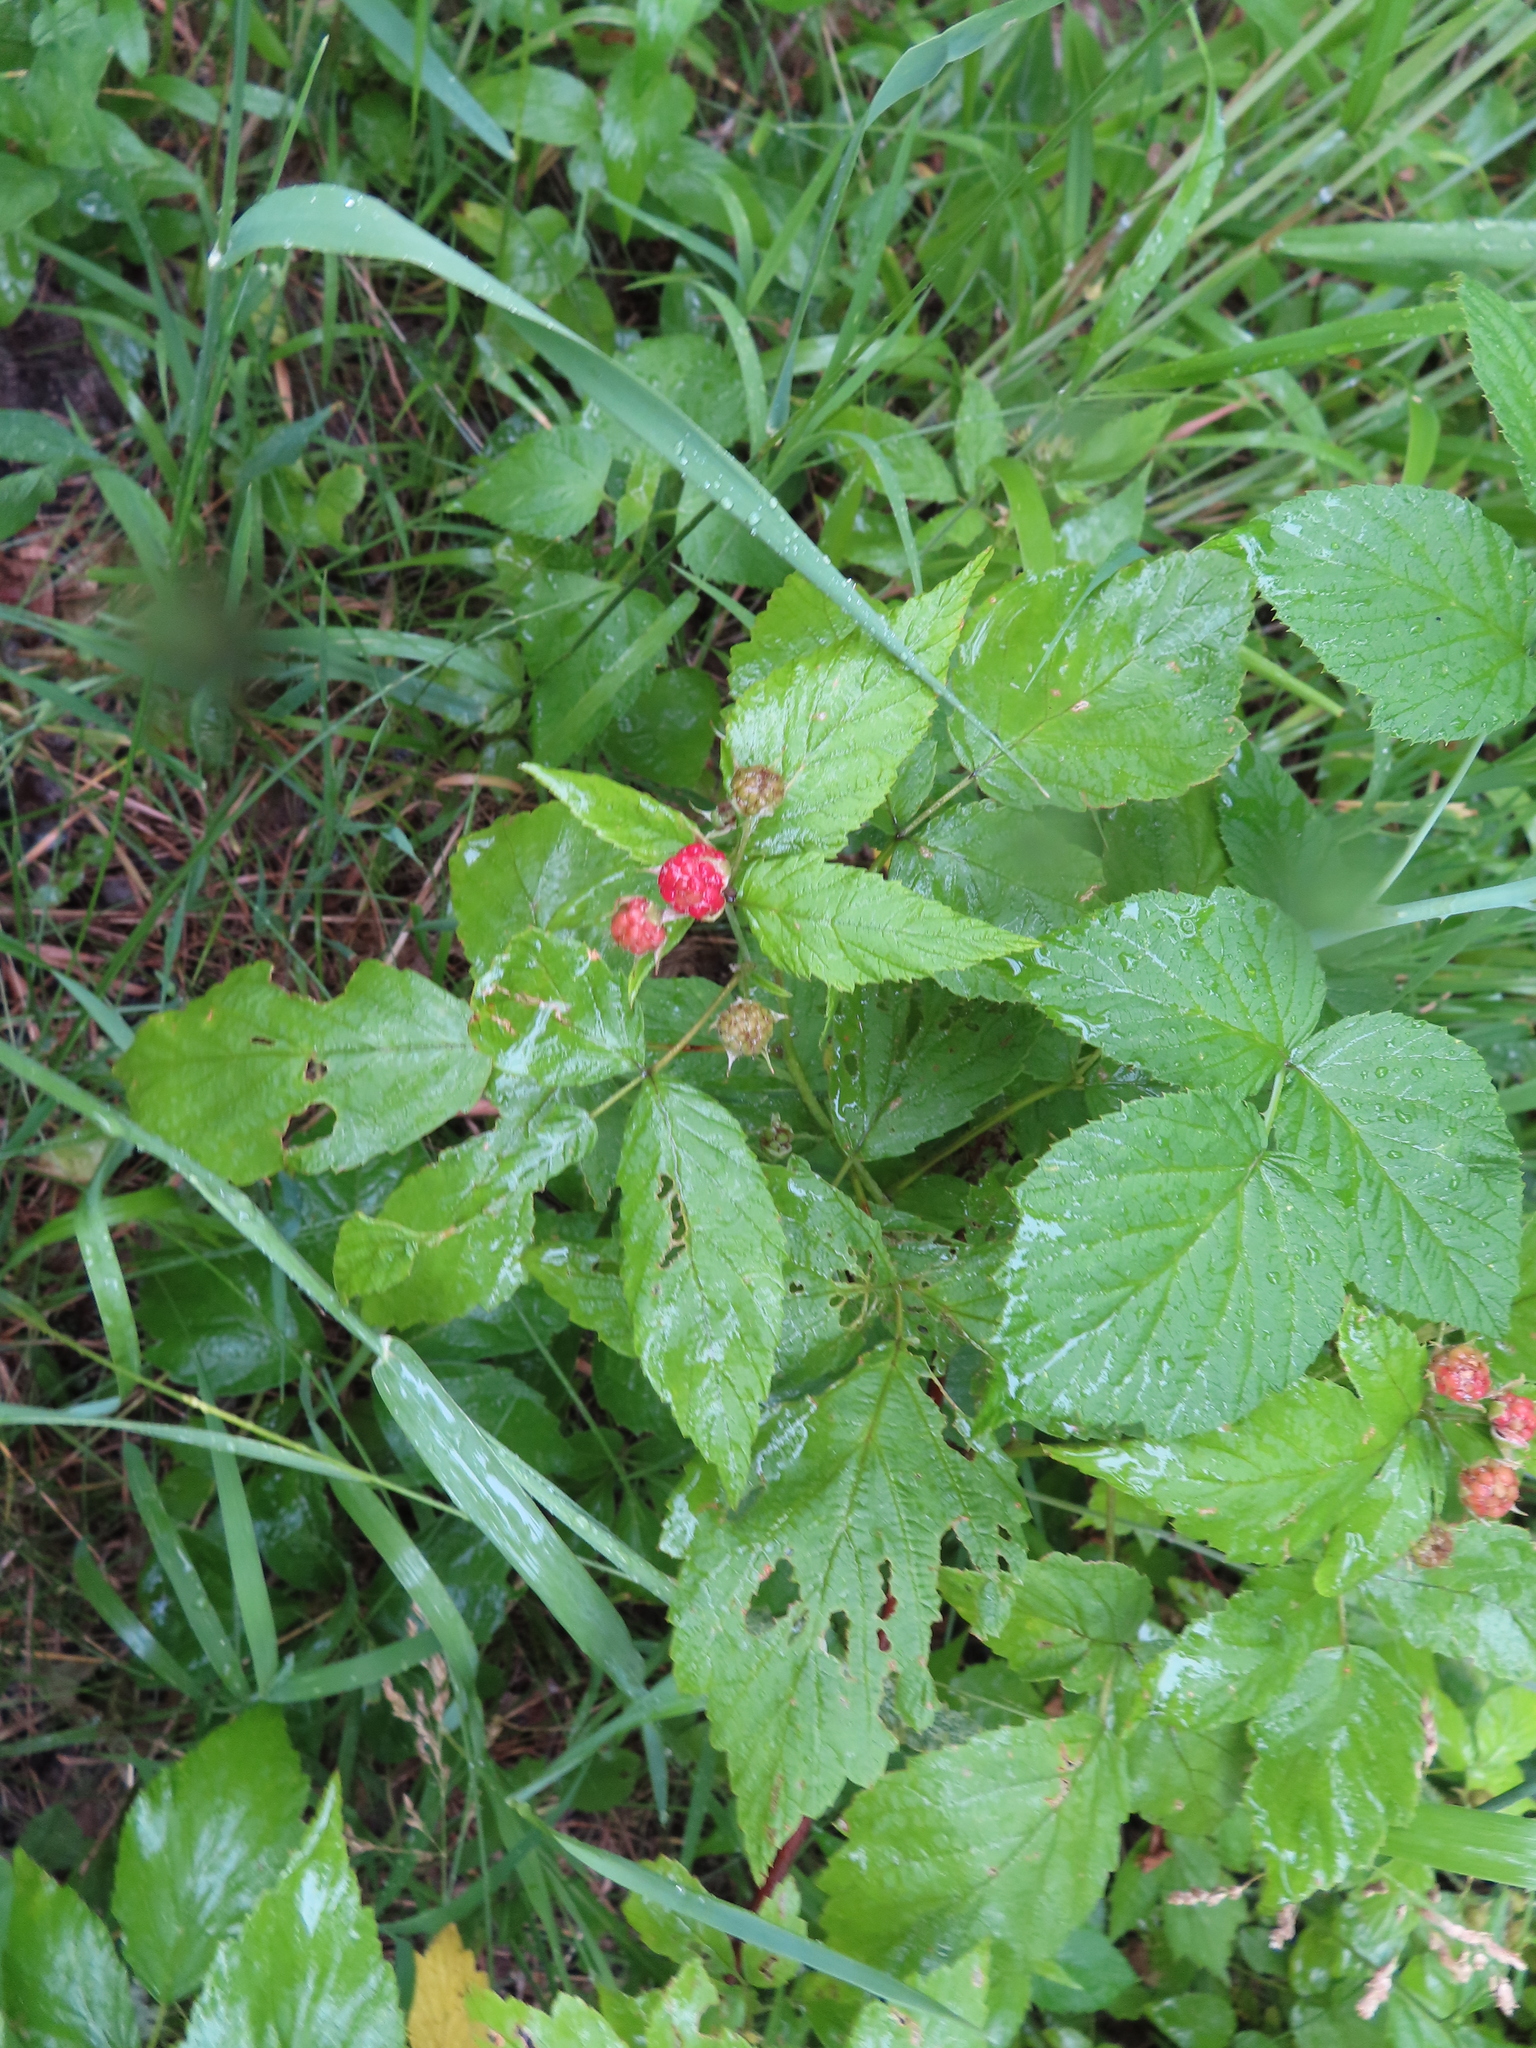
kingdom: Plantae
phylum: Tracheophyta
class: Magnoliopsida
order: Rosales
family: Rosaceae
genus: Rubus
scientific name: Rubus occidentalis
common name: Black raspberry
